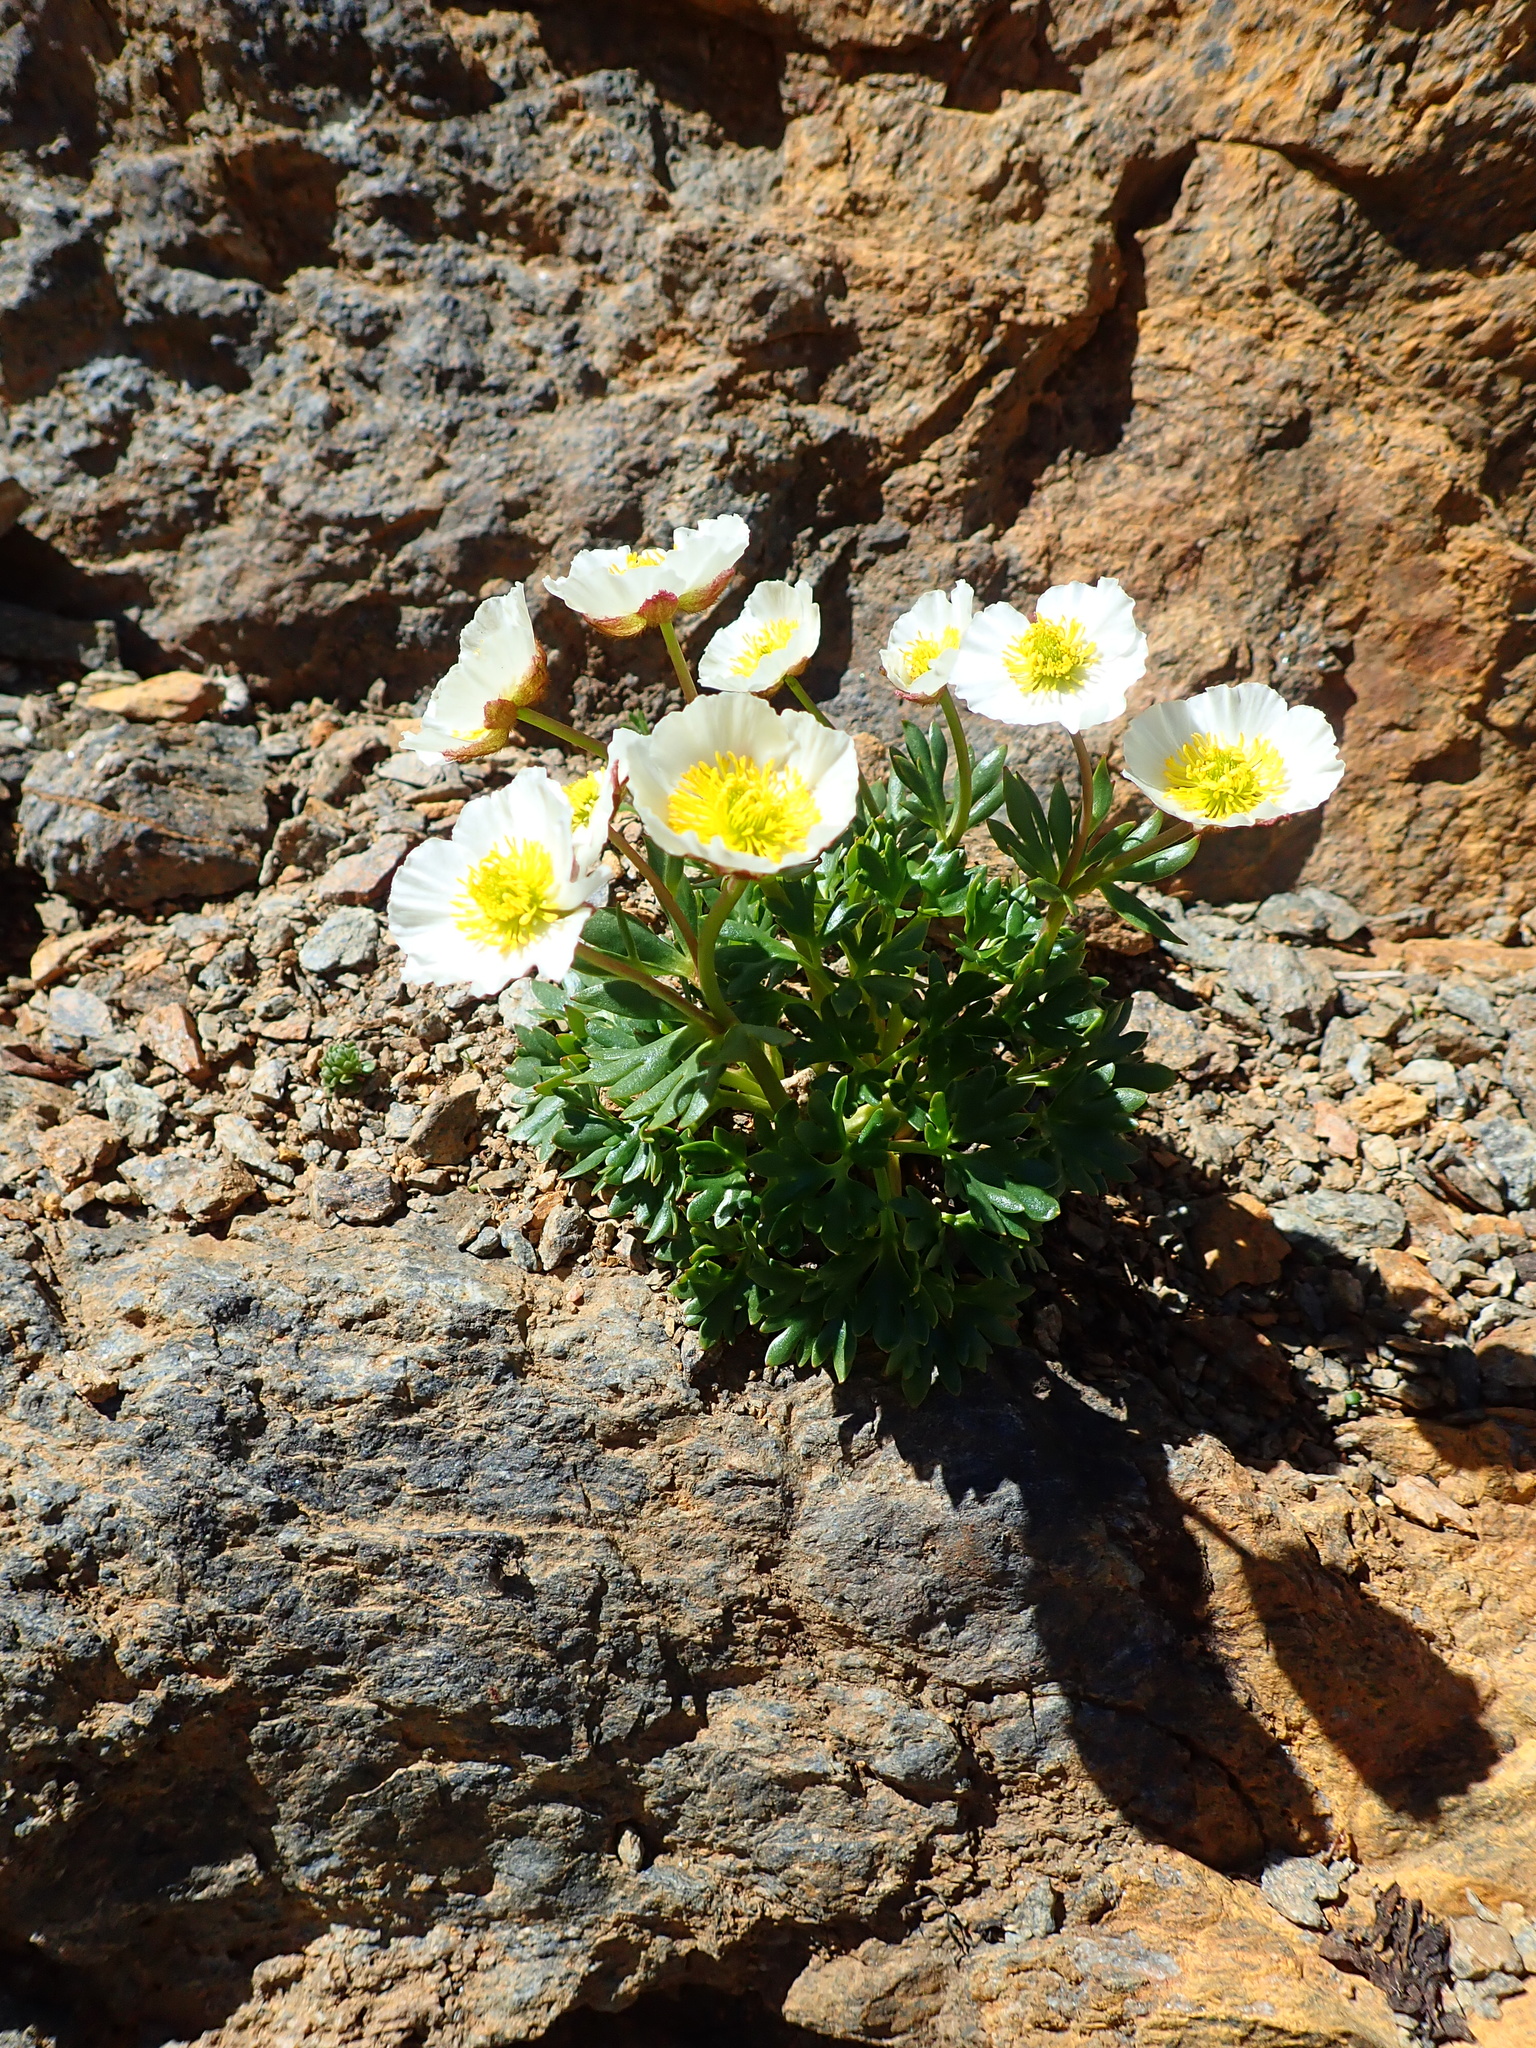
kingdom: Plantae
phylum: Tracheophyta
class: Magnoliopsida
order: Ranunculales
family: Ranunculaceae
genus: Ranunculus
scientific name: Ranunculus glacialis
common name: Glacier buttercup
